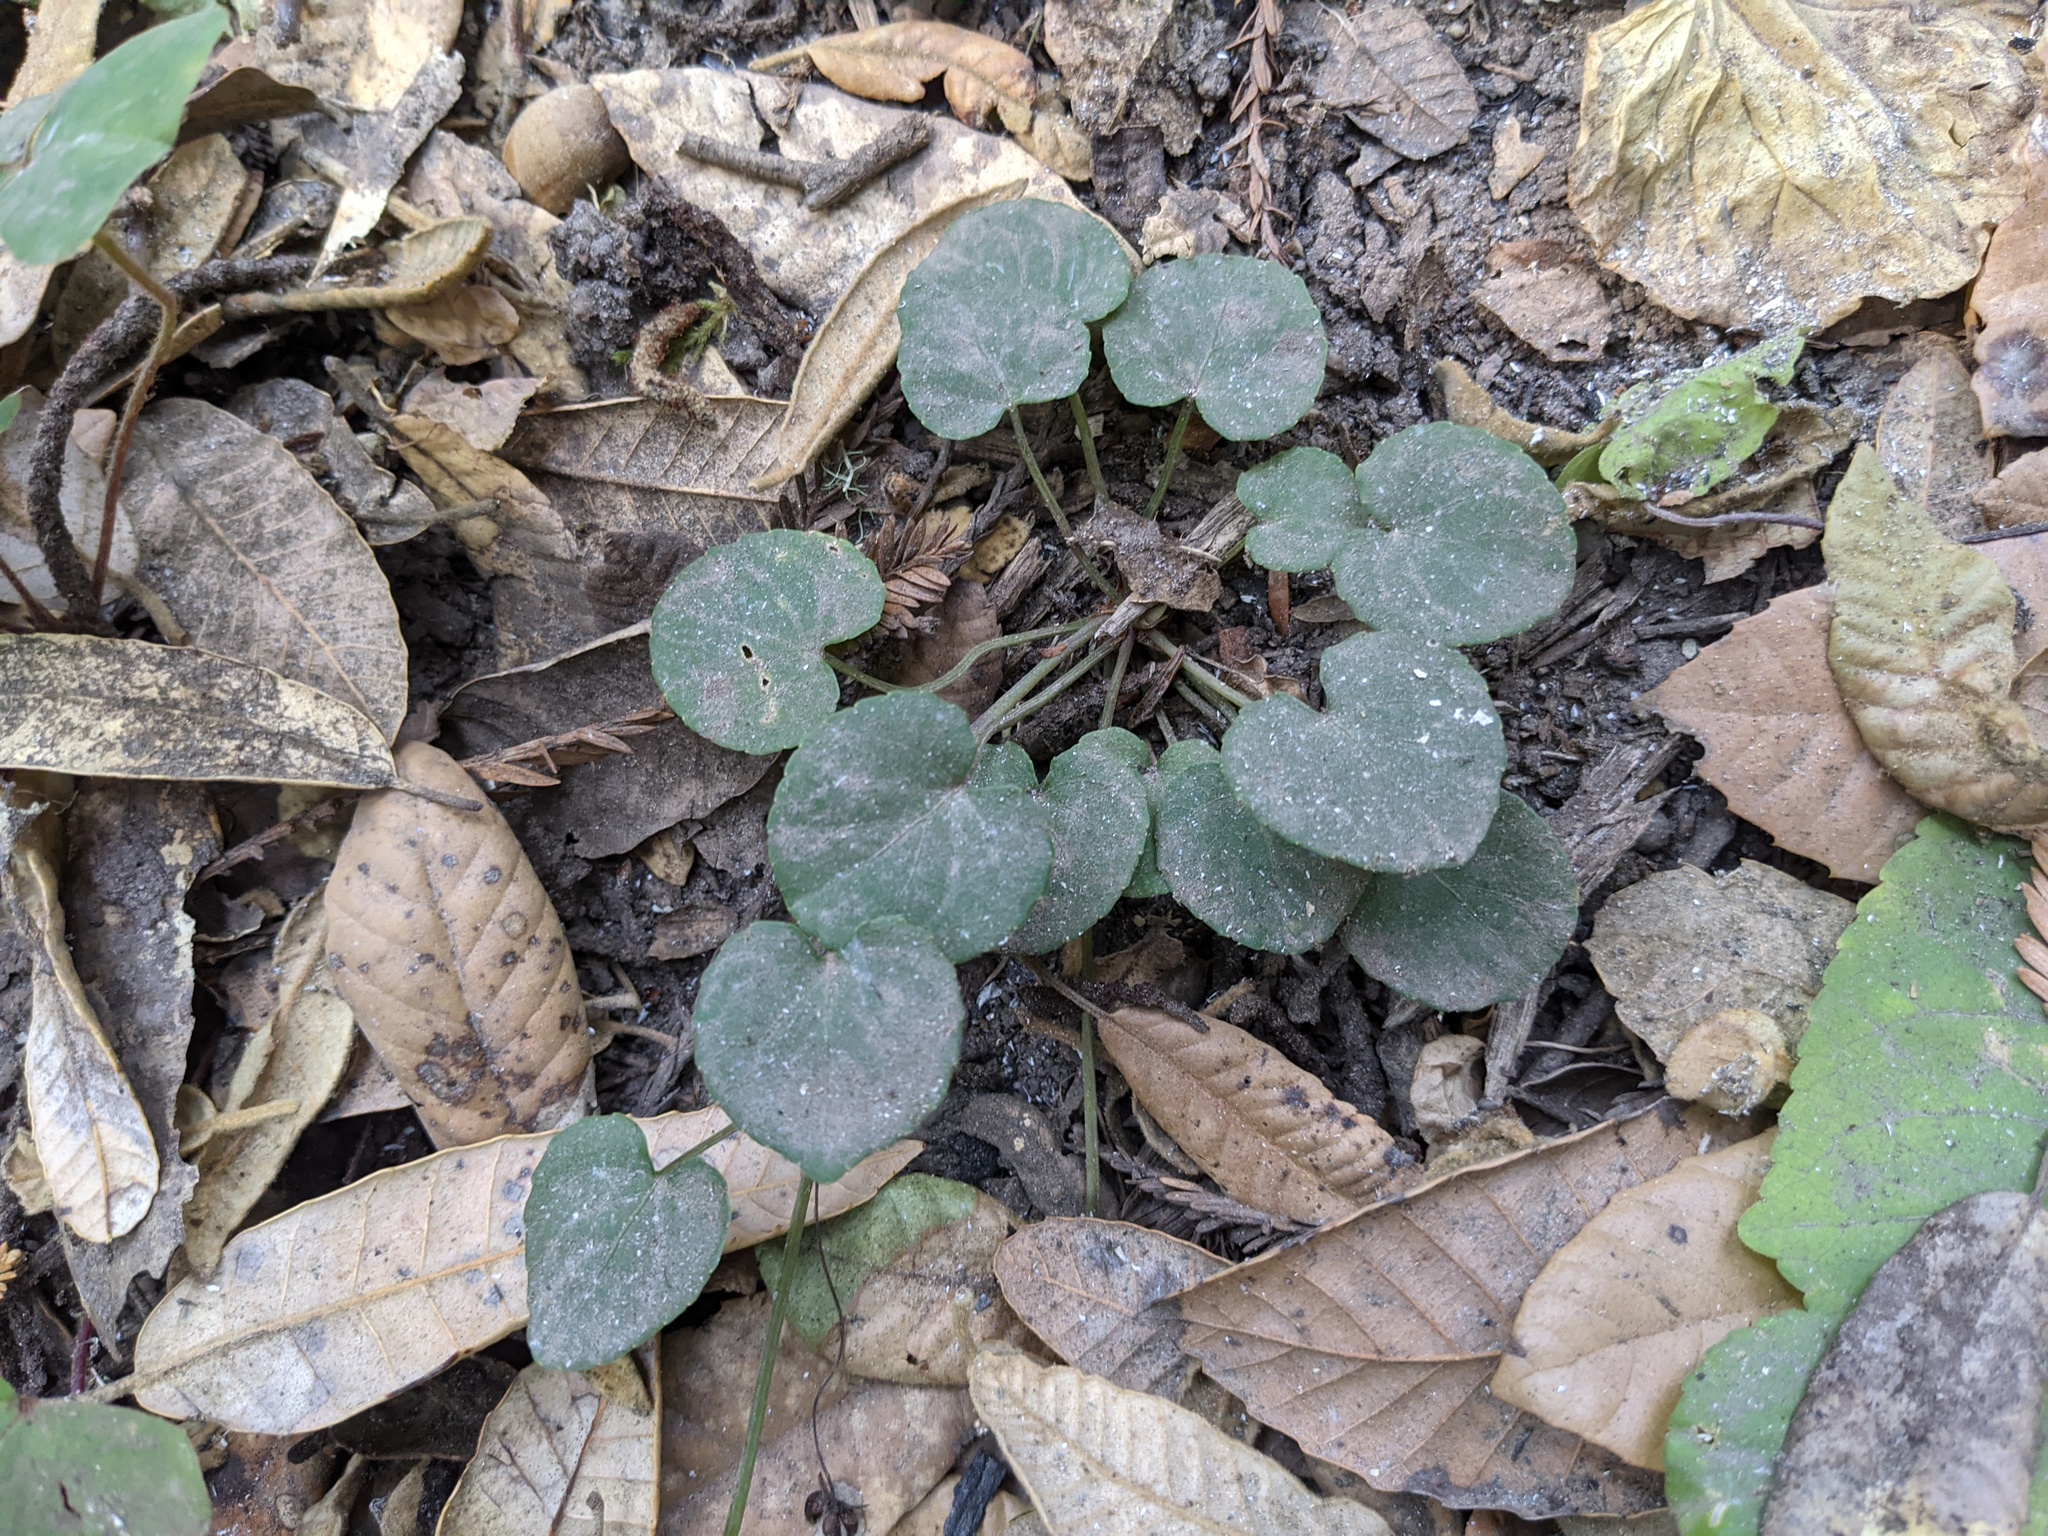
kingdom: Plantae
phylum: Tracheophyta
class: Magnoliopsida
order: Malpighiales
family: Violaceae
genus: Viola
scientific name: Viola sempervirens
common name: Evergreen violet
